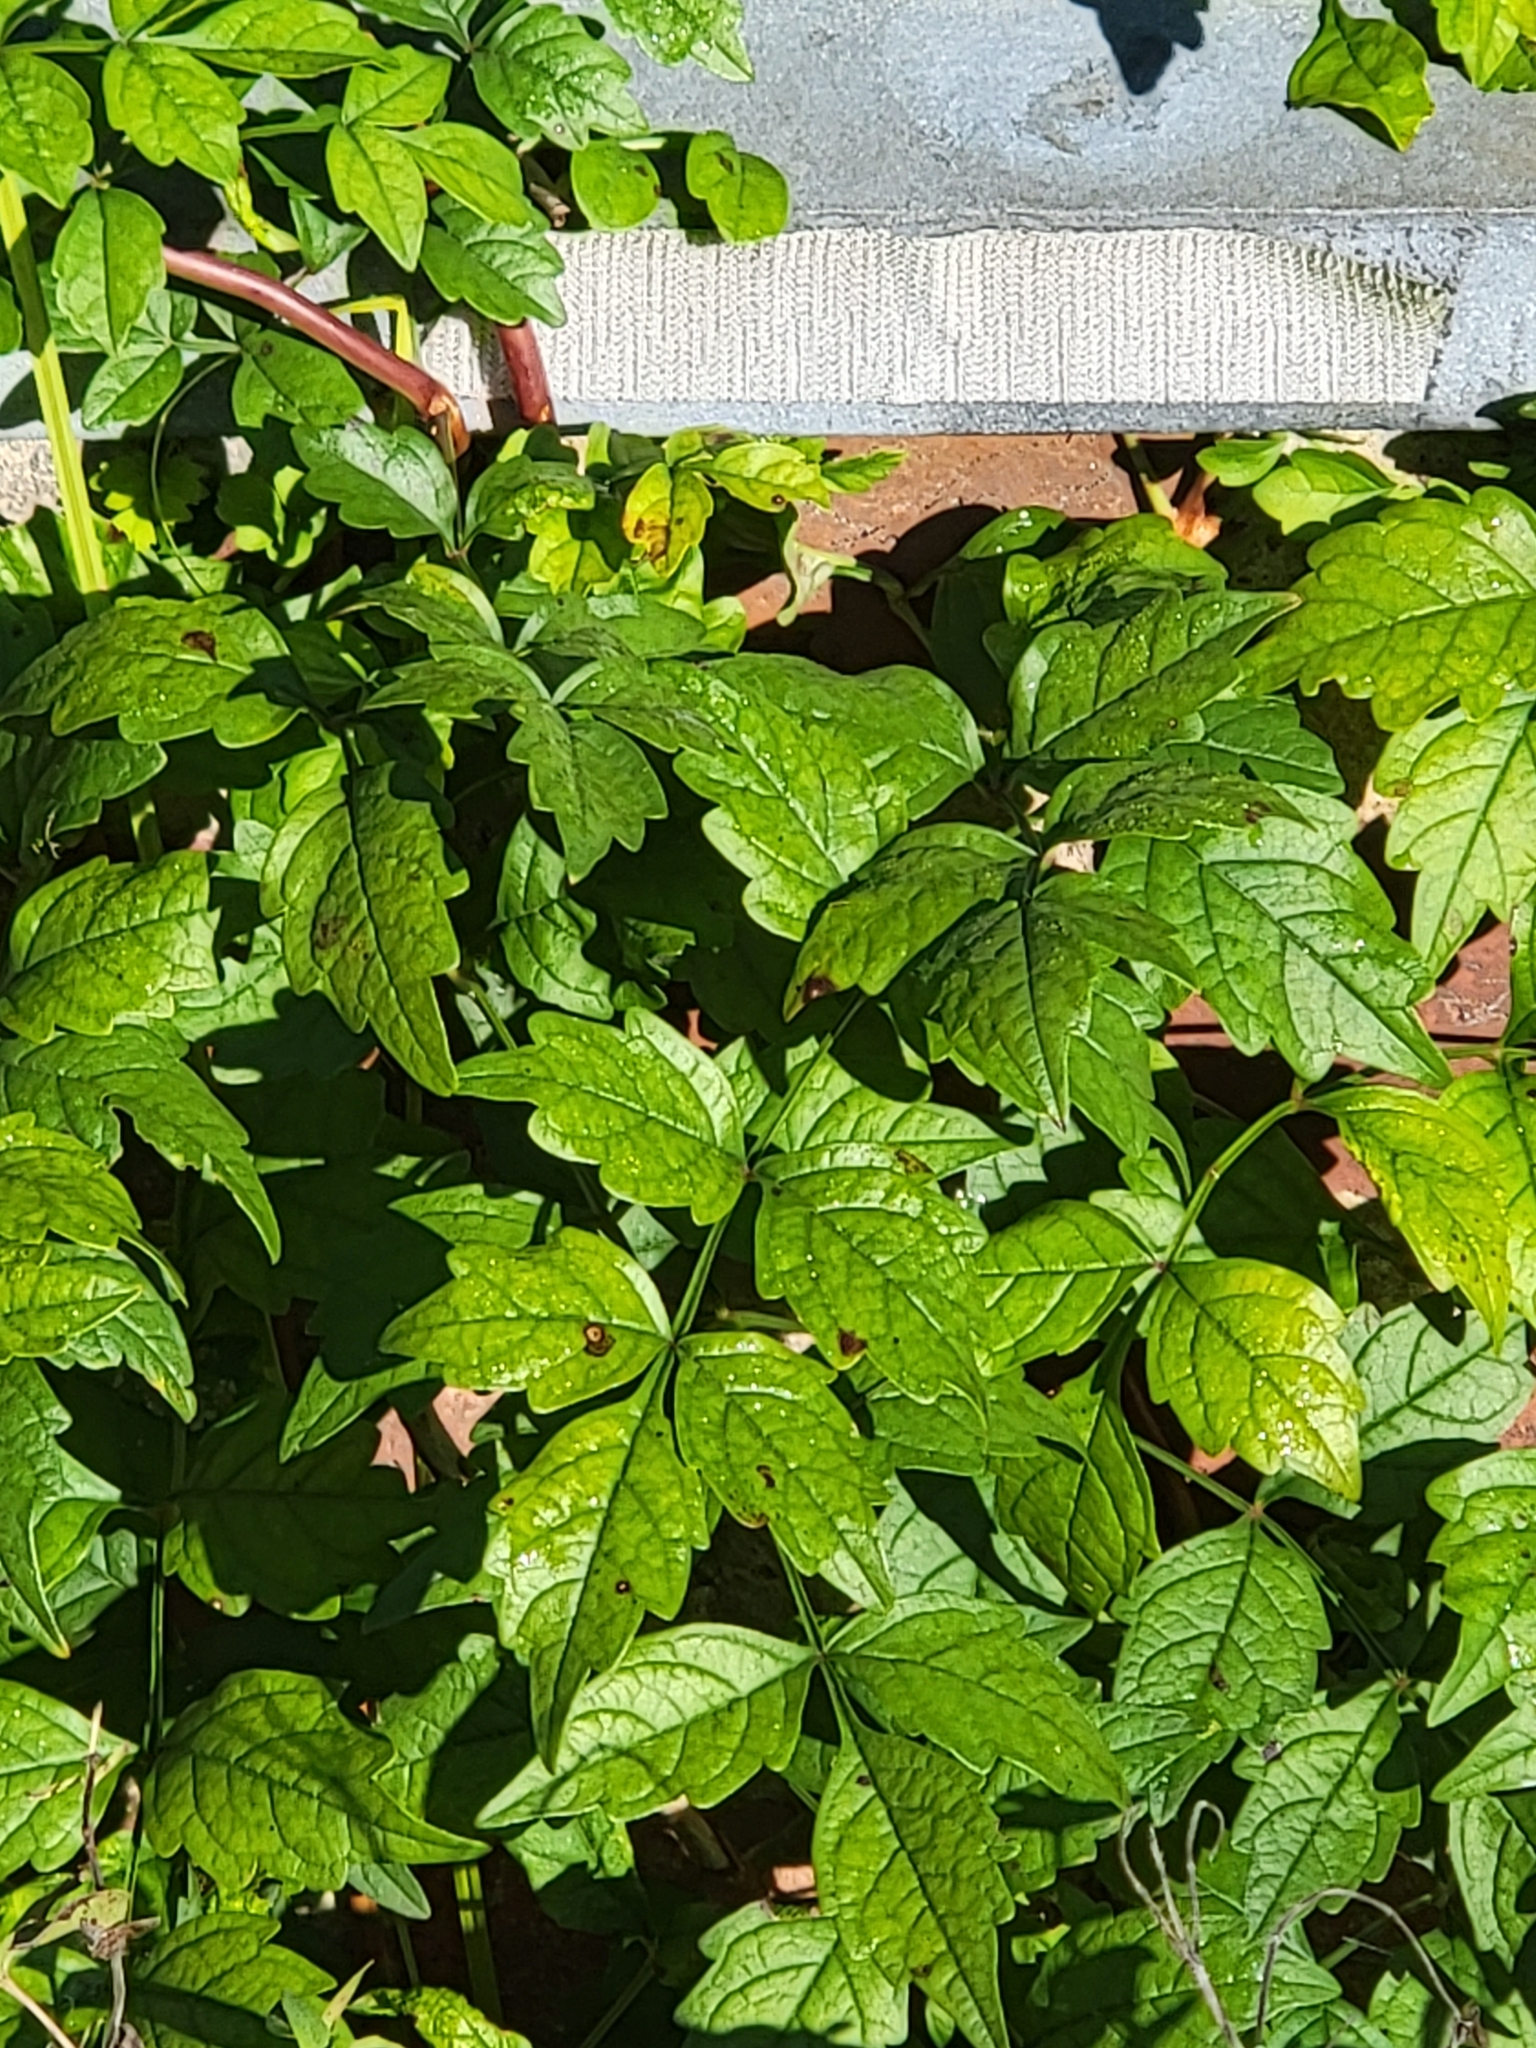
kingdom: Plantae
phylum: Tracheophyta
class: Magnoliopsida
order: Lamiales
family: Bignoniaceae
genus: Campsis
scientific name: Campsis radicans
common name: Trumpet-creeper
